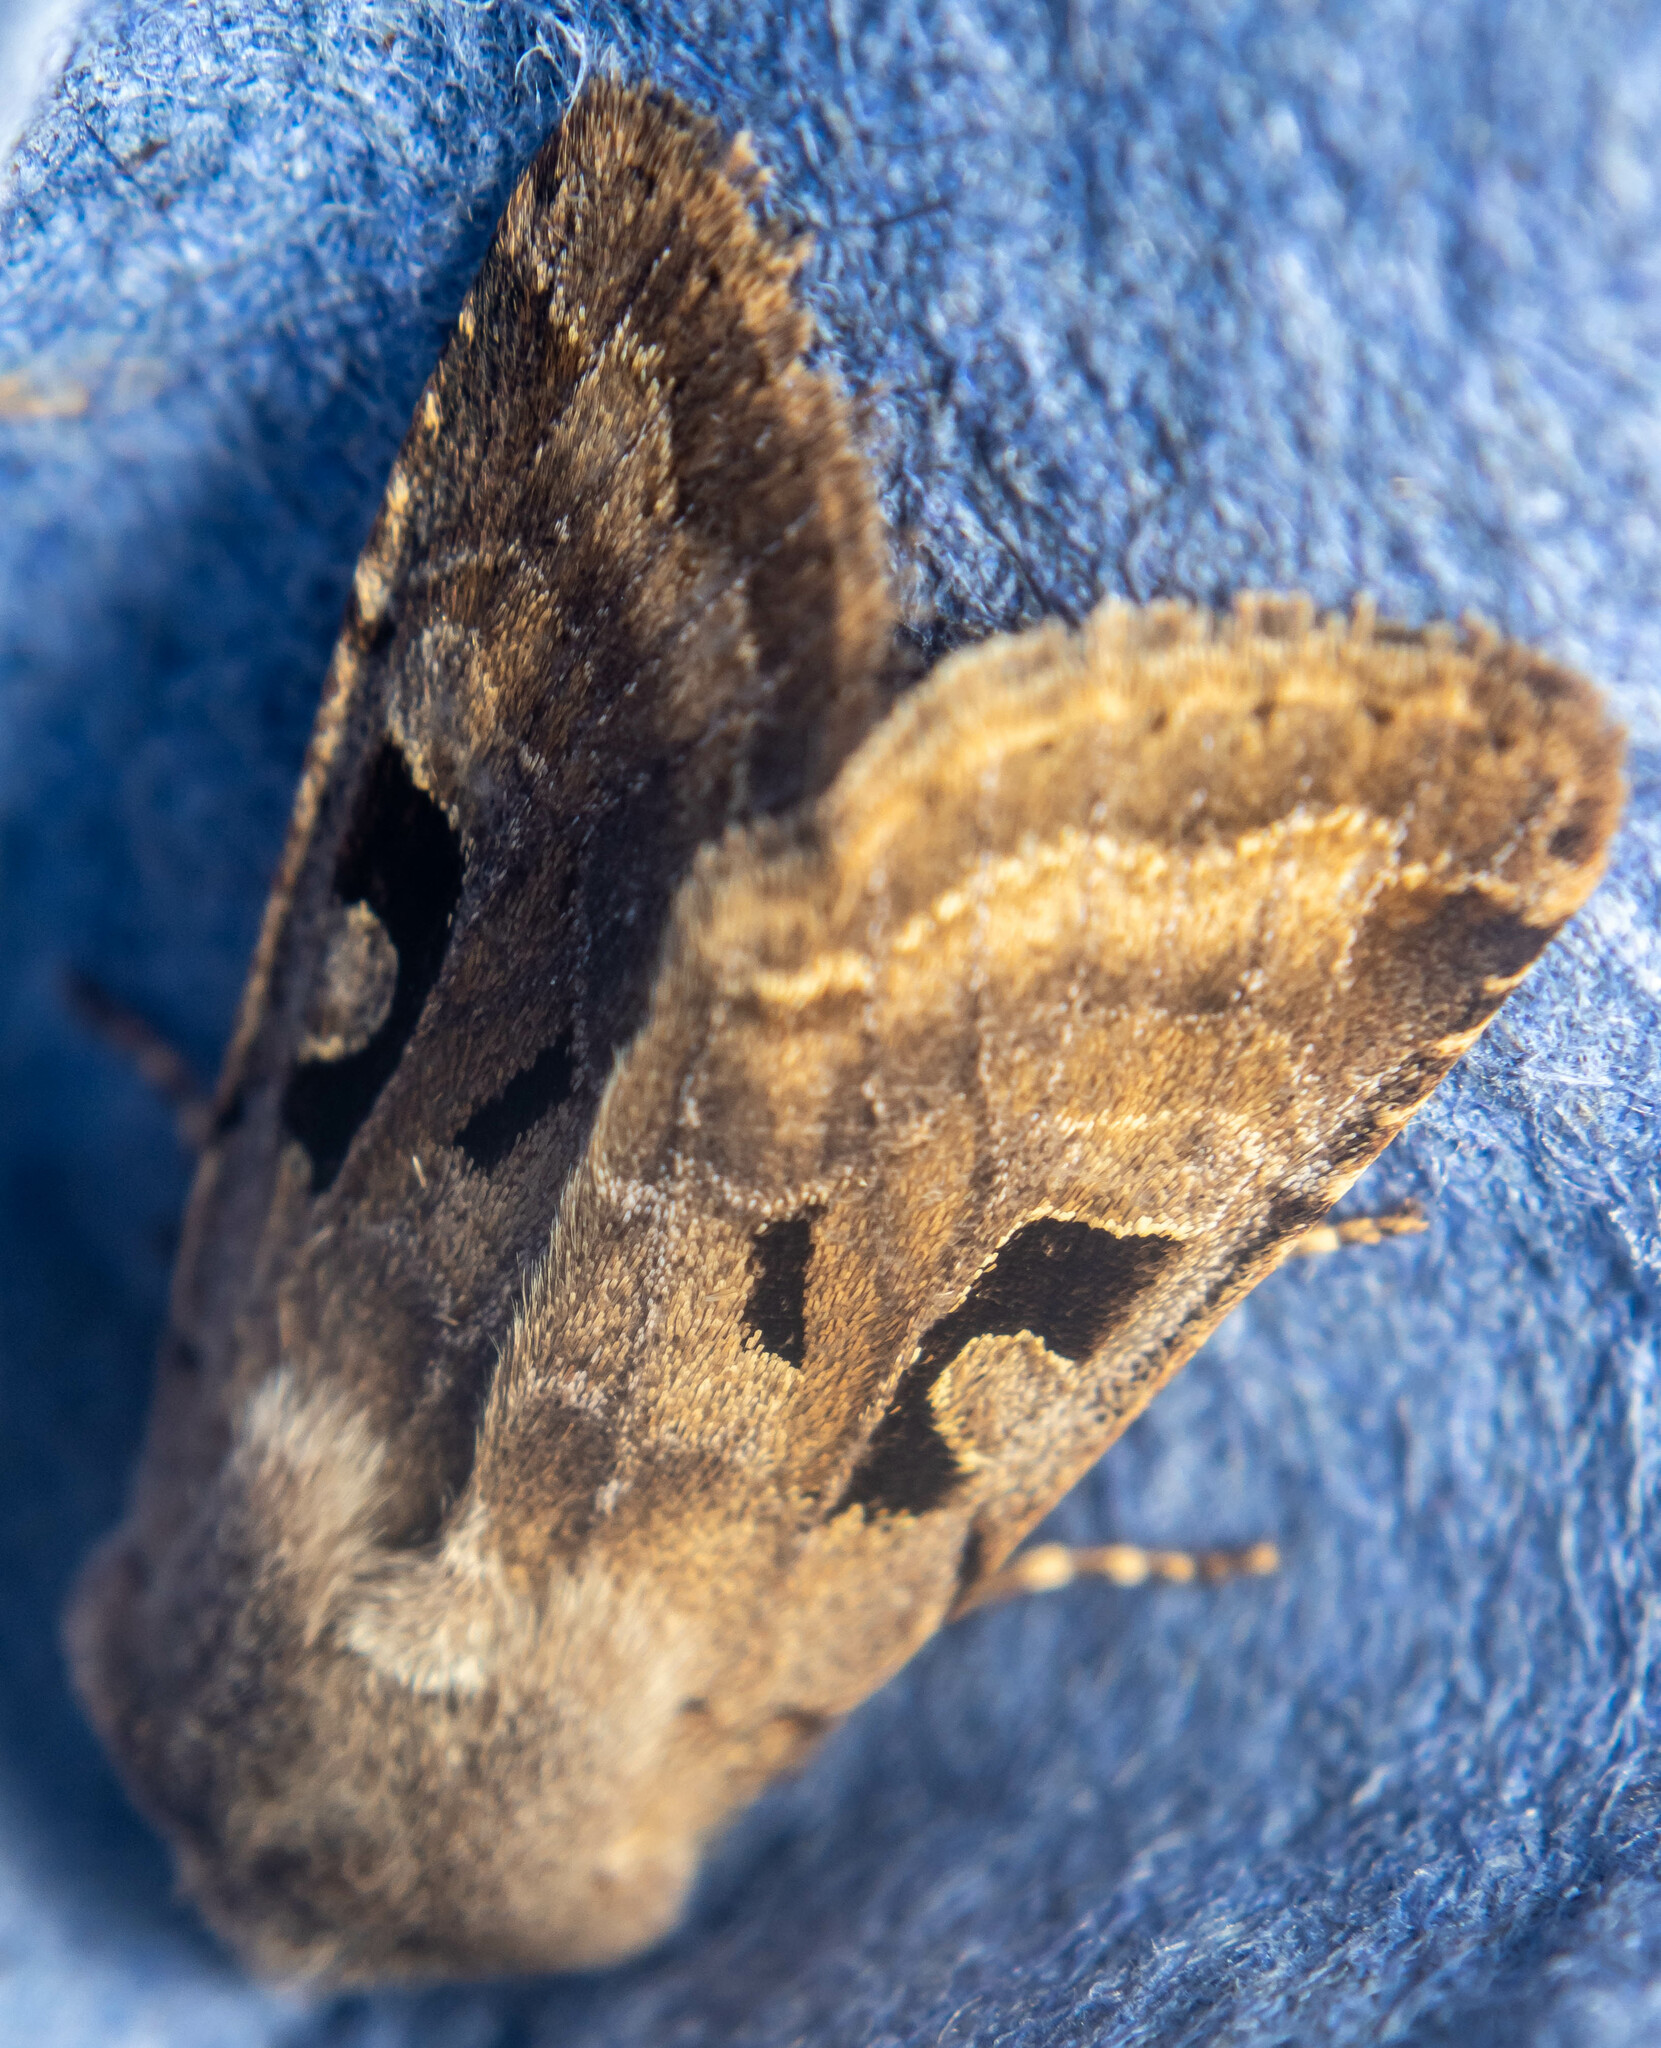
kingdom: Animalia
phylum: Arthropoda
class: Insecta
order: Lepidoptera
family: Noctuidae
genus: Orthosia
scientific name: Orthosia gothica
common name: Hebrew character
